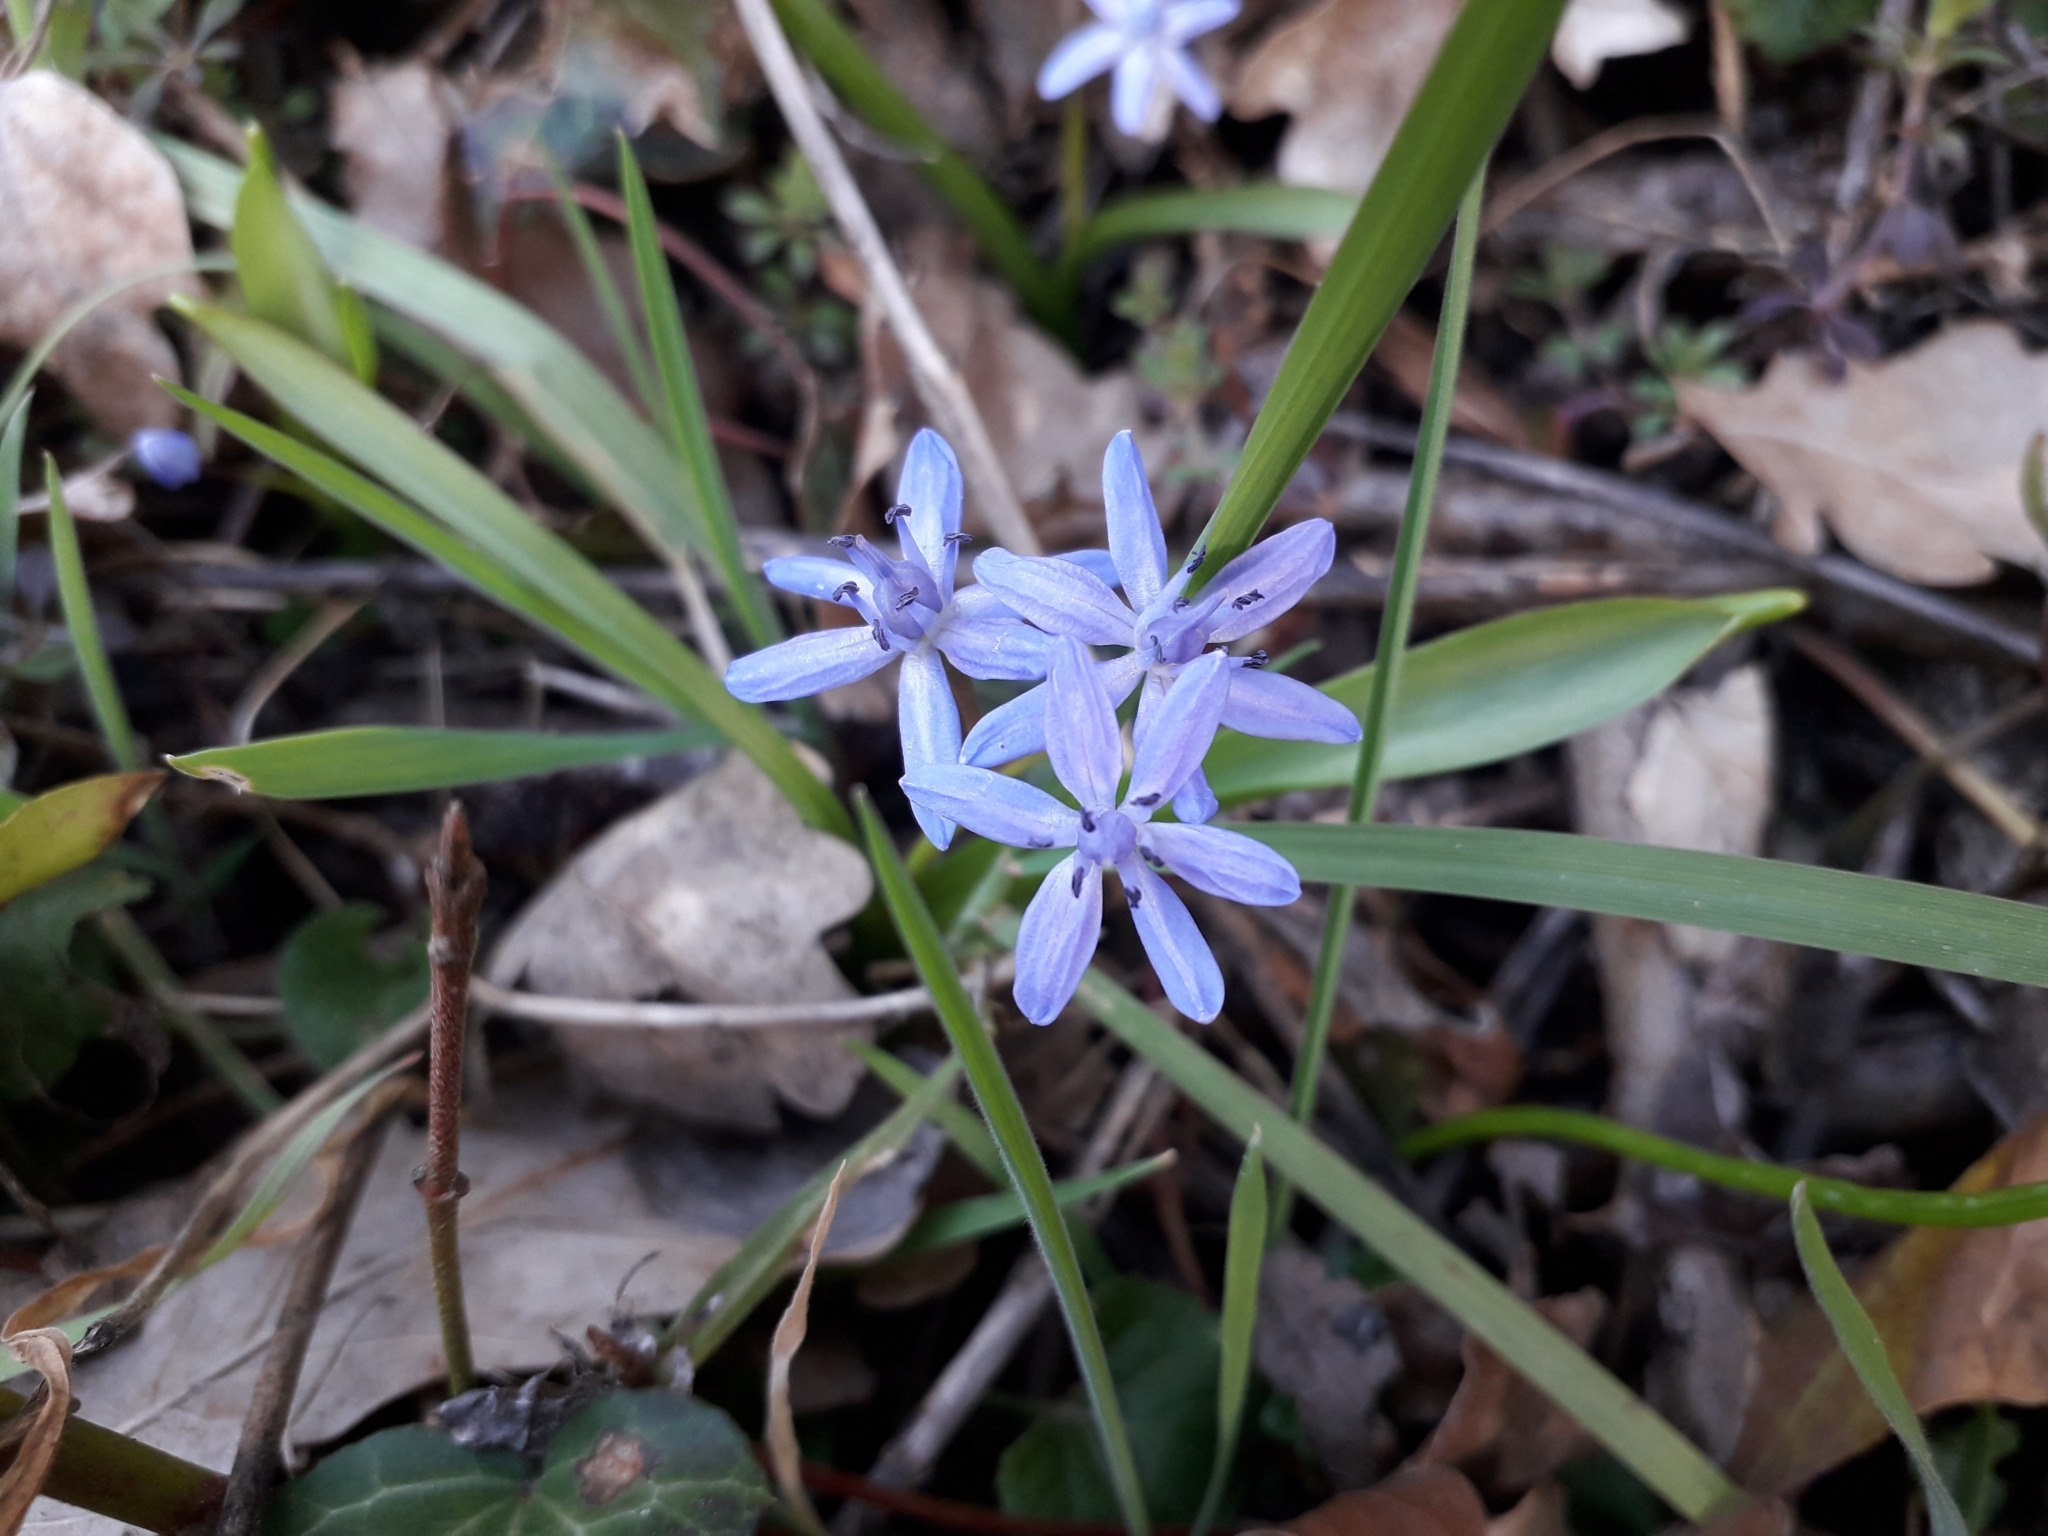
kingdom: Plantae
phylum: Tracheophyta
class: Liliopsida
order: Asparagales
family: Asparagaceae
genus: Scilla
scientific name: Scilla bifolia
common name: Alpine squill
